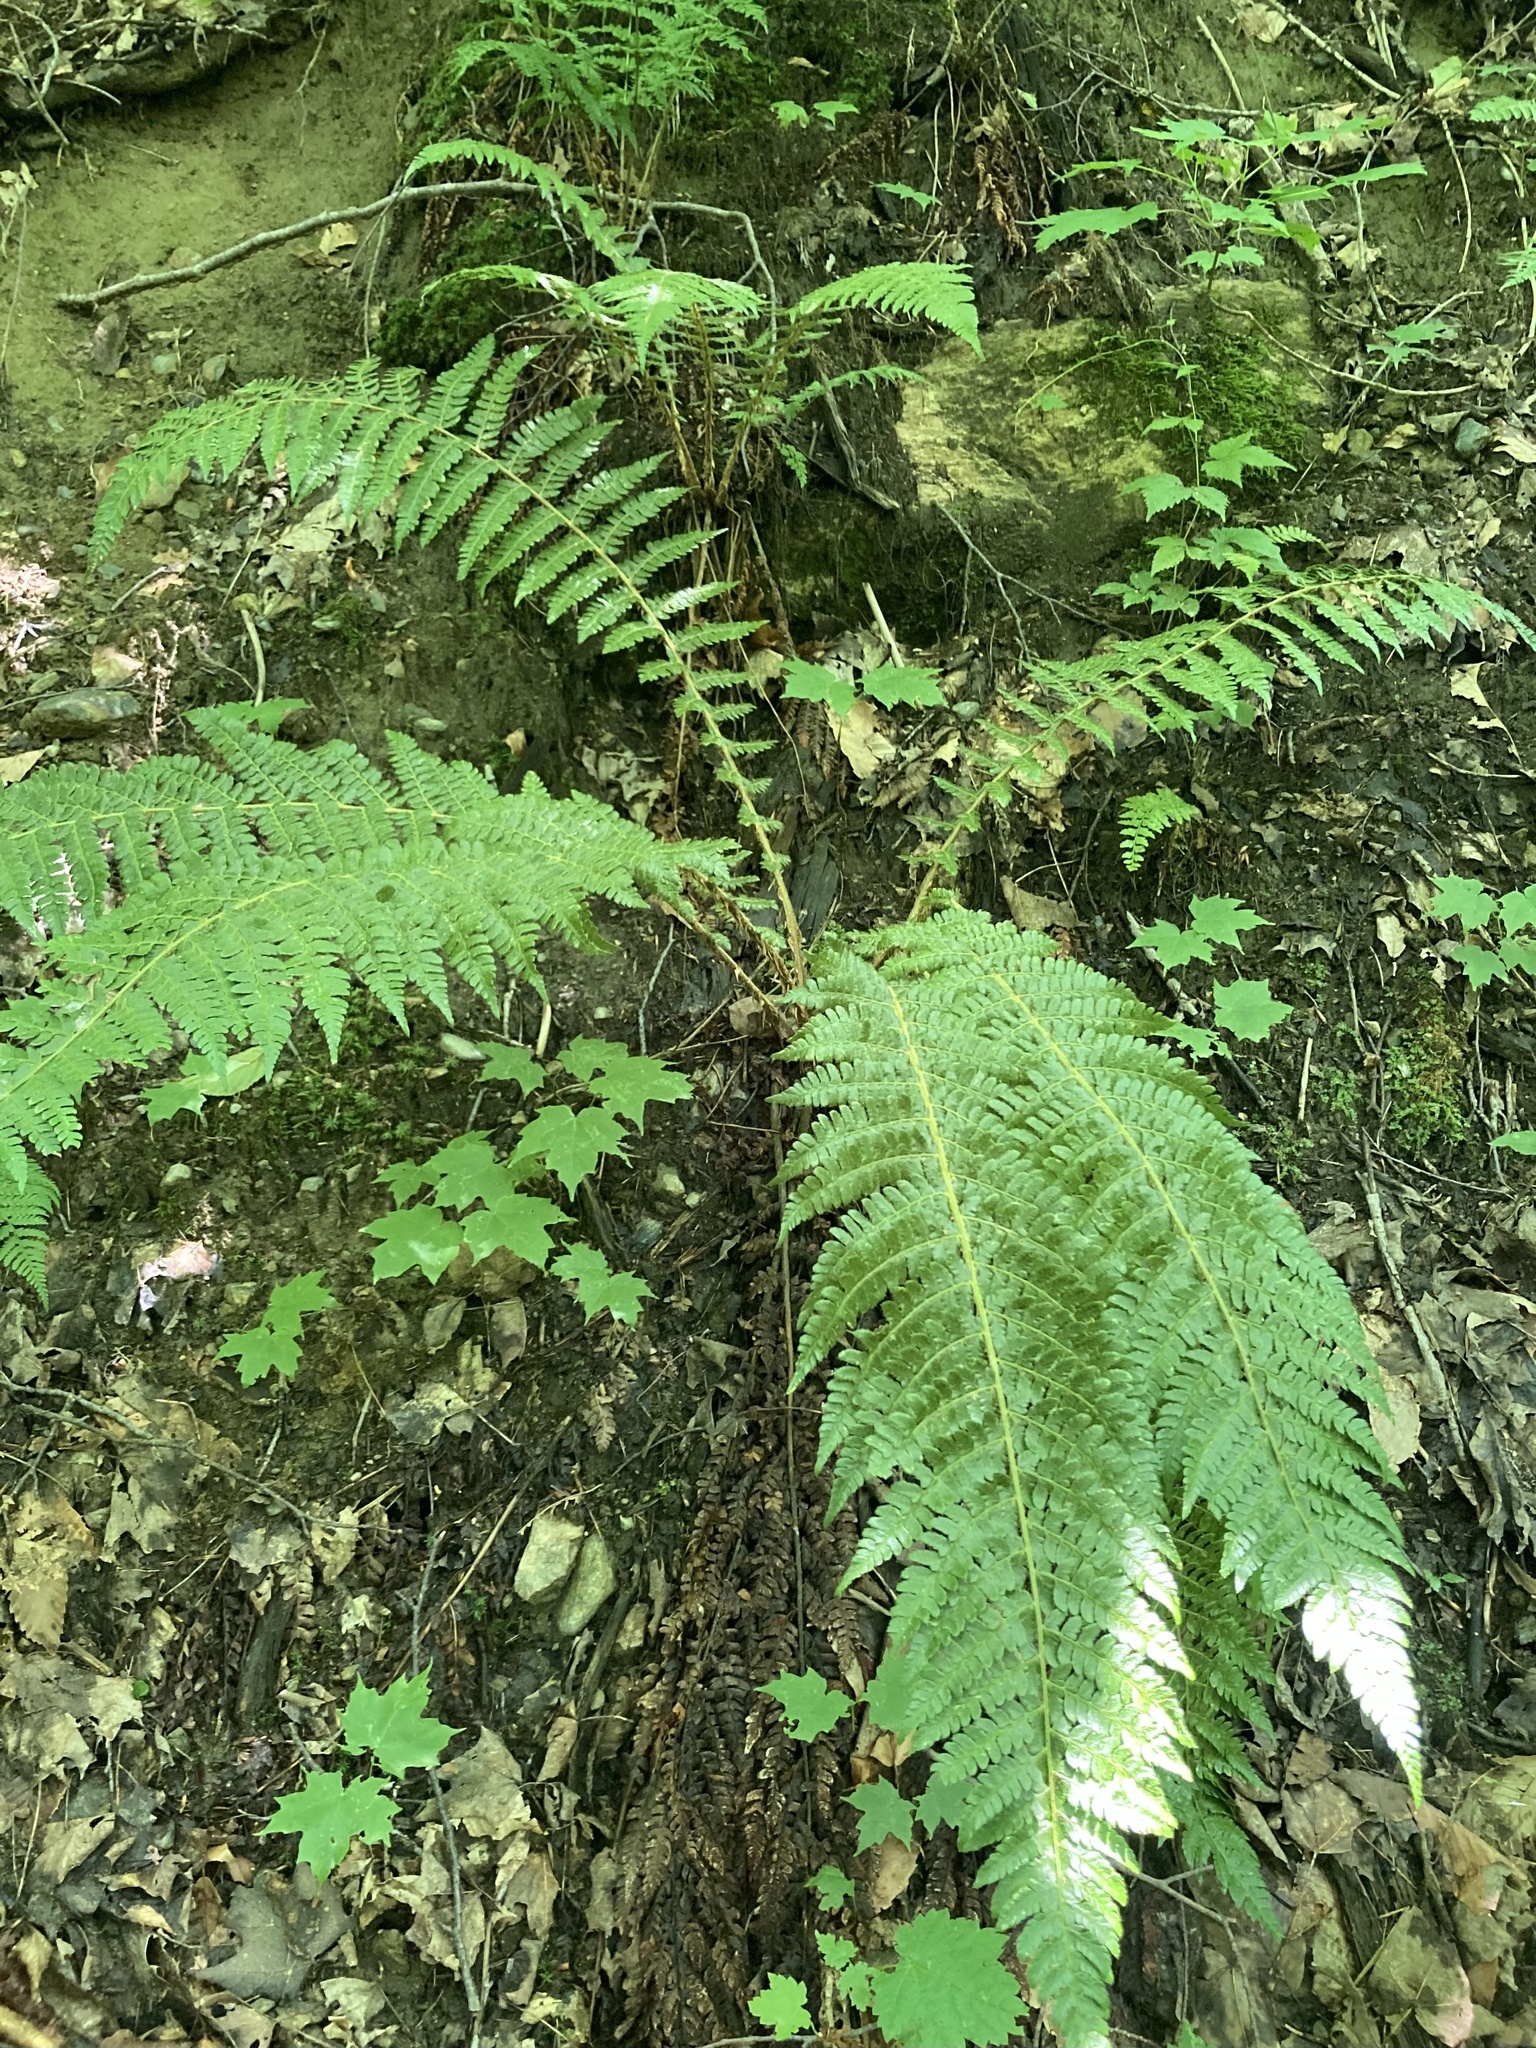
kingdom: Plantae
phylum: Tracheophyta
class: Polypodiopsida
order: Polypodiales
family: Dryopteridaceae
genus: Polystichum
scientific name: Polystichum braunii
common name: Braun's holly fern
